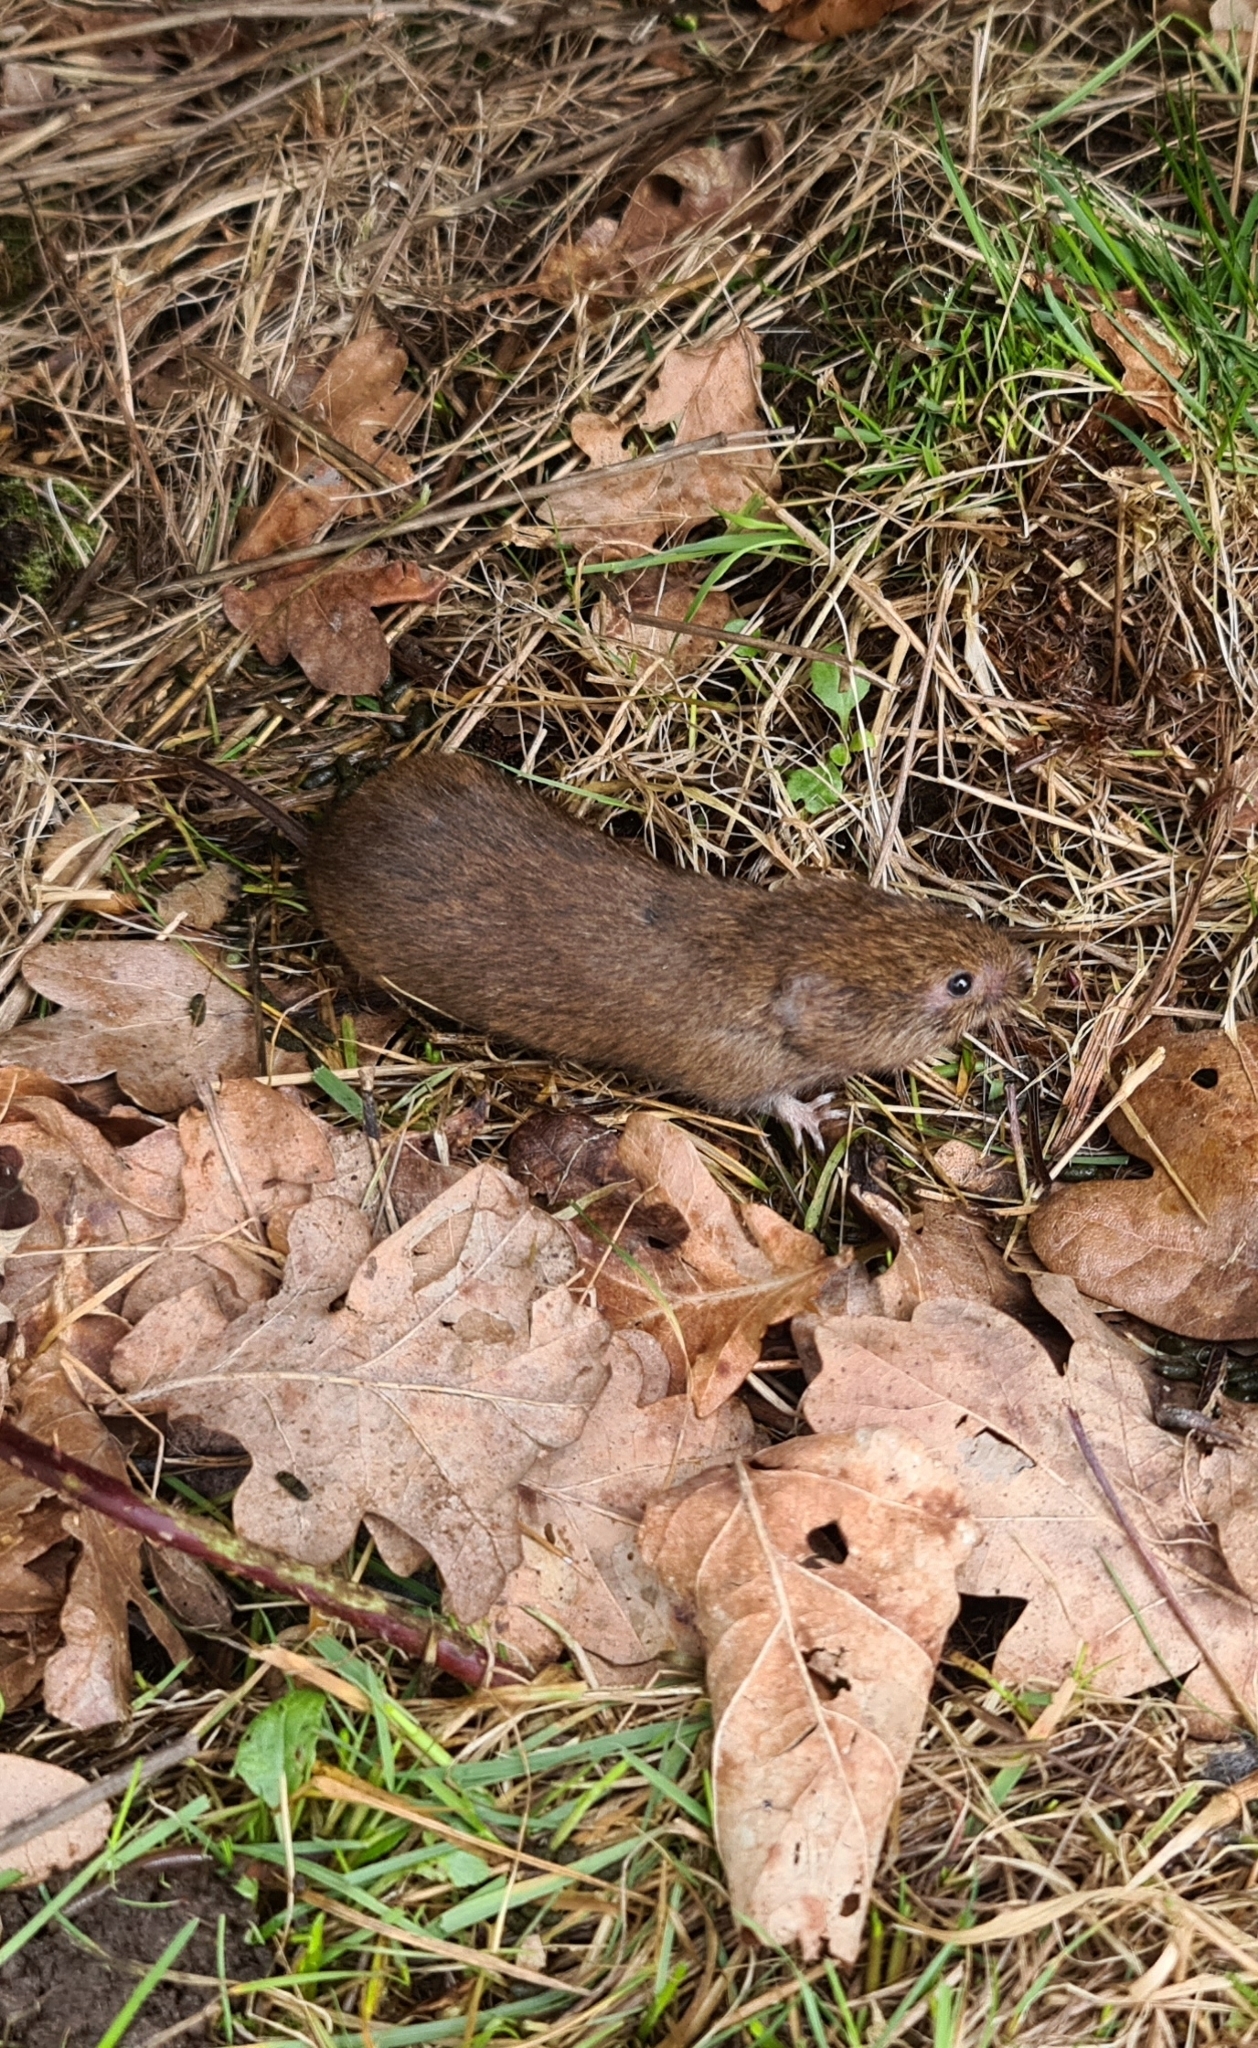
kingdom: Animalia
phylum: Chordata
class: Mammalia
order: Rodentia
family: Cricetidae
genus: Microtus
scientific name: Microtus agrestis
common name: Field vole
